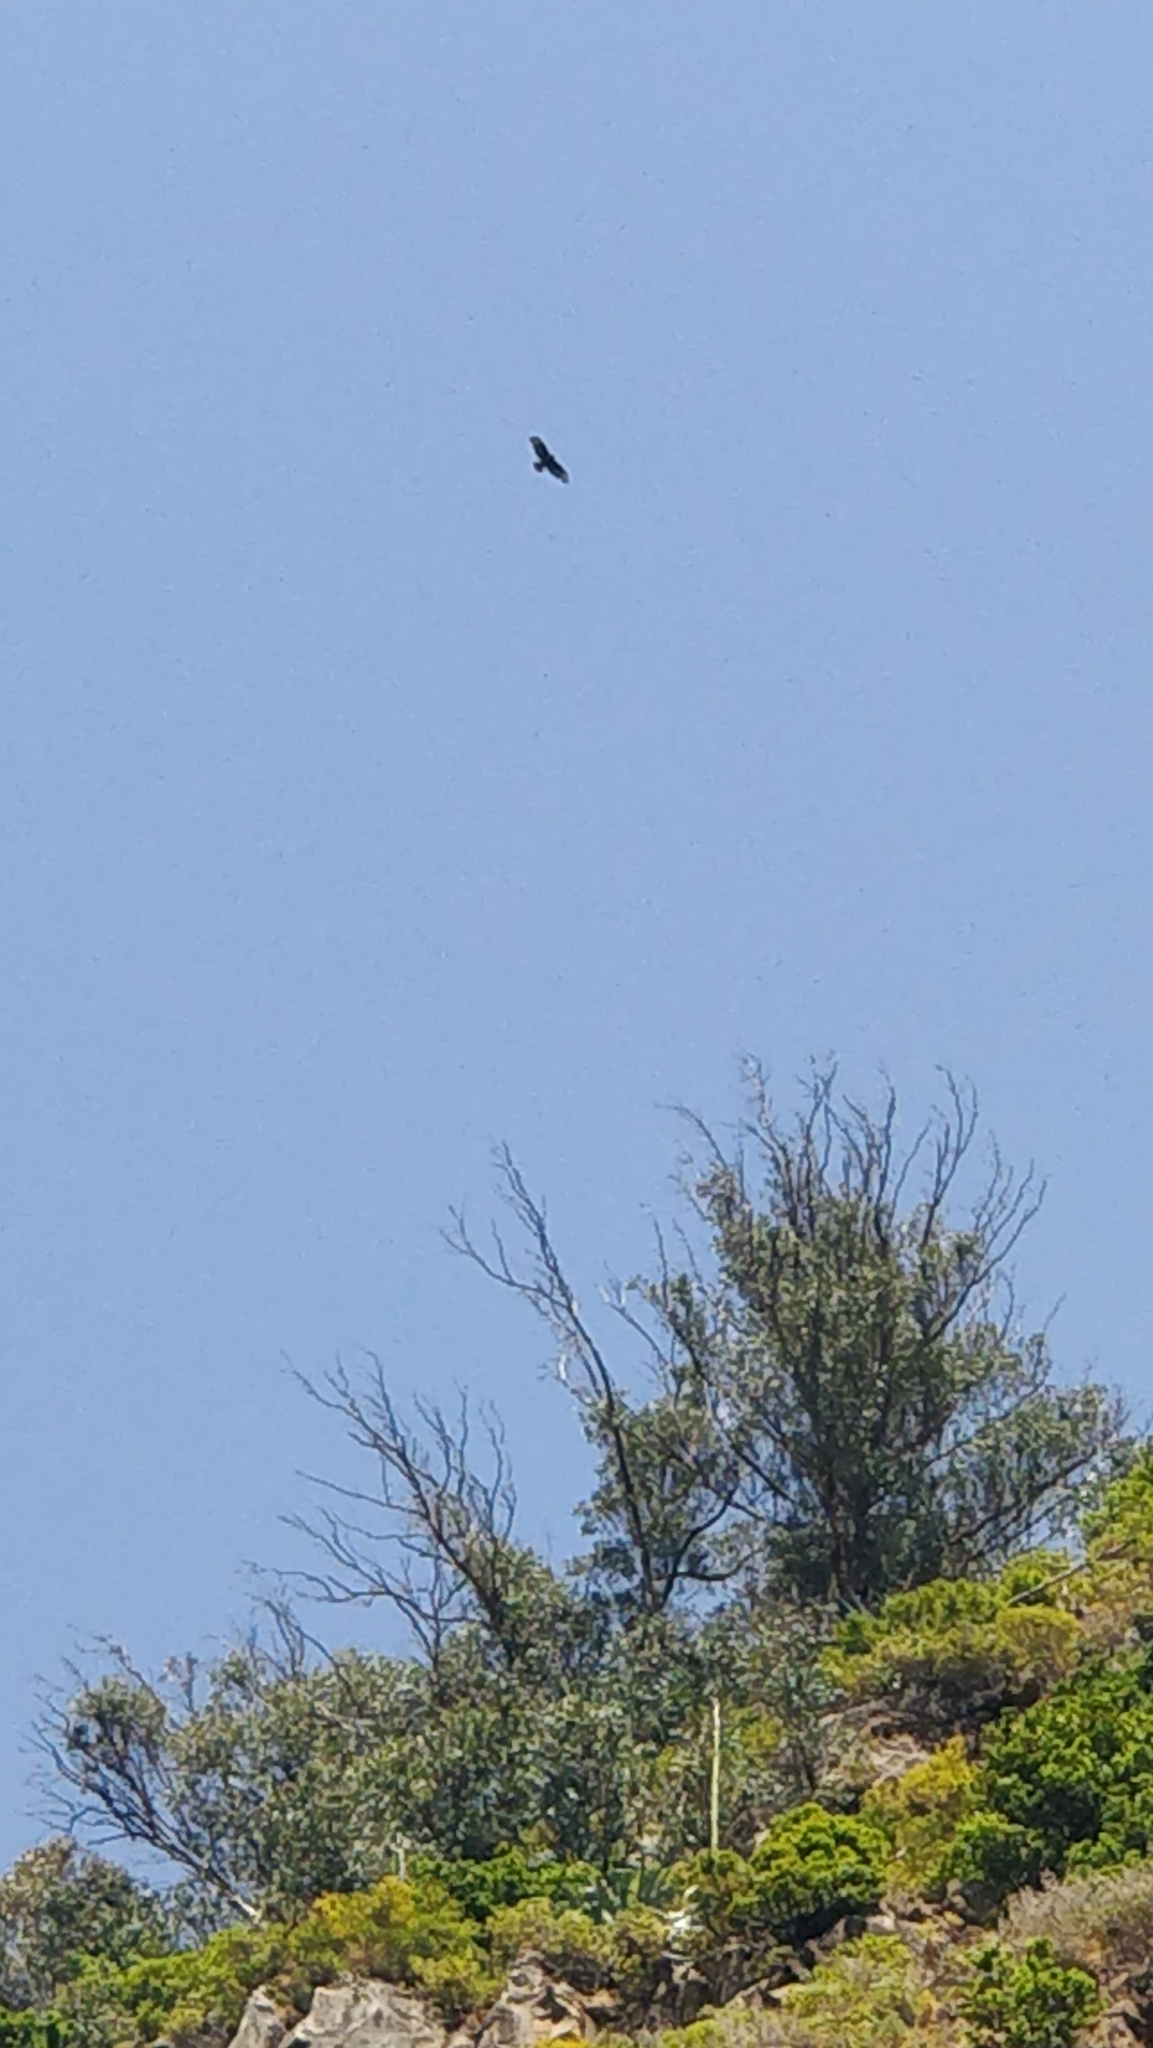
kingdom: Animalia
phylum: Chordata
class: Aves
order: Accipitriformes
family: Accipitridae
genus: Buteo
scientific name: Buteo buteo
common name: Common buzzard
